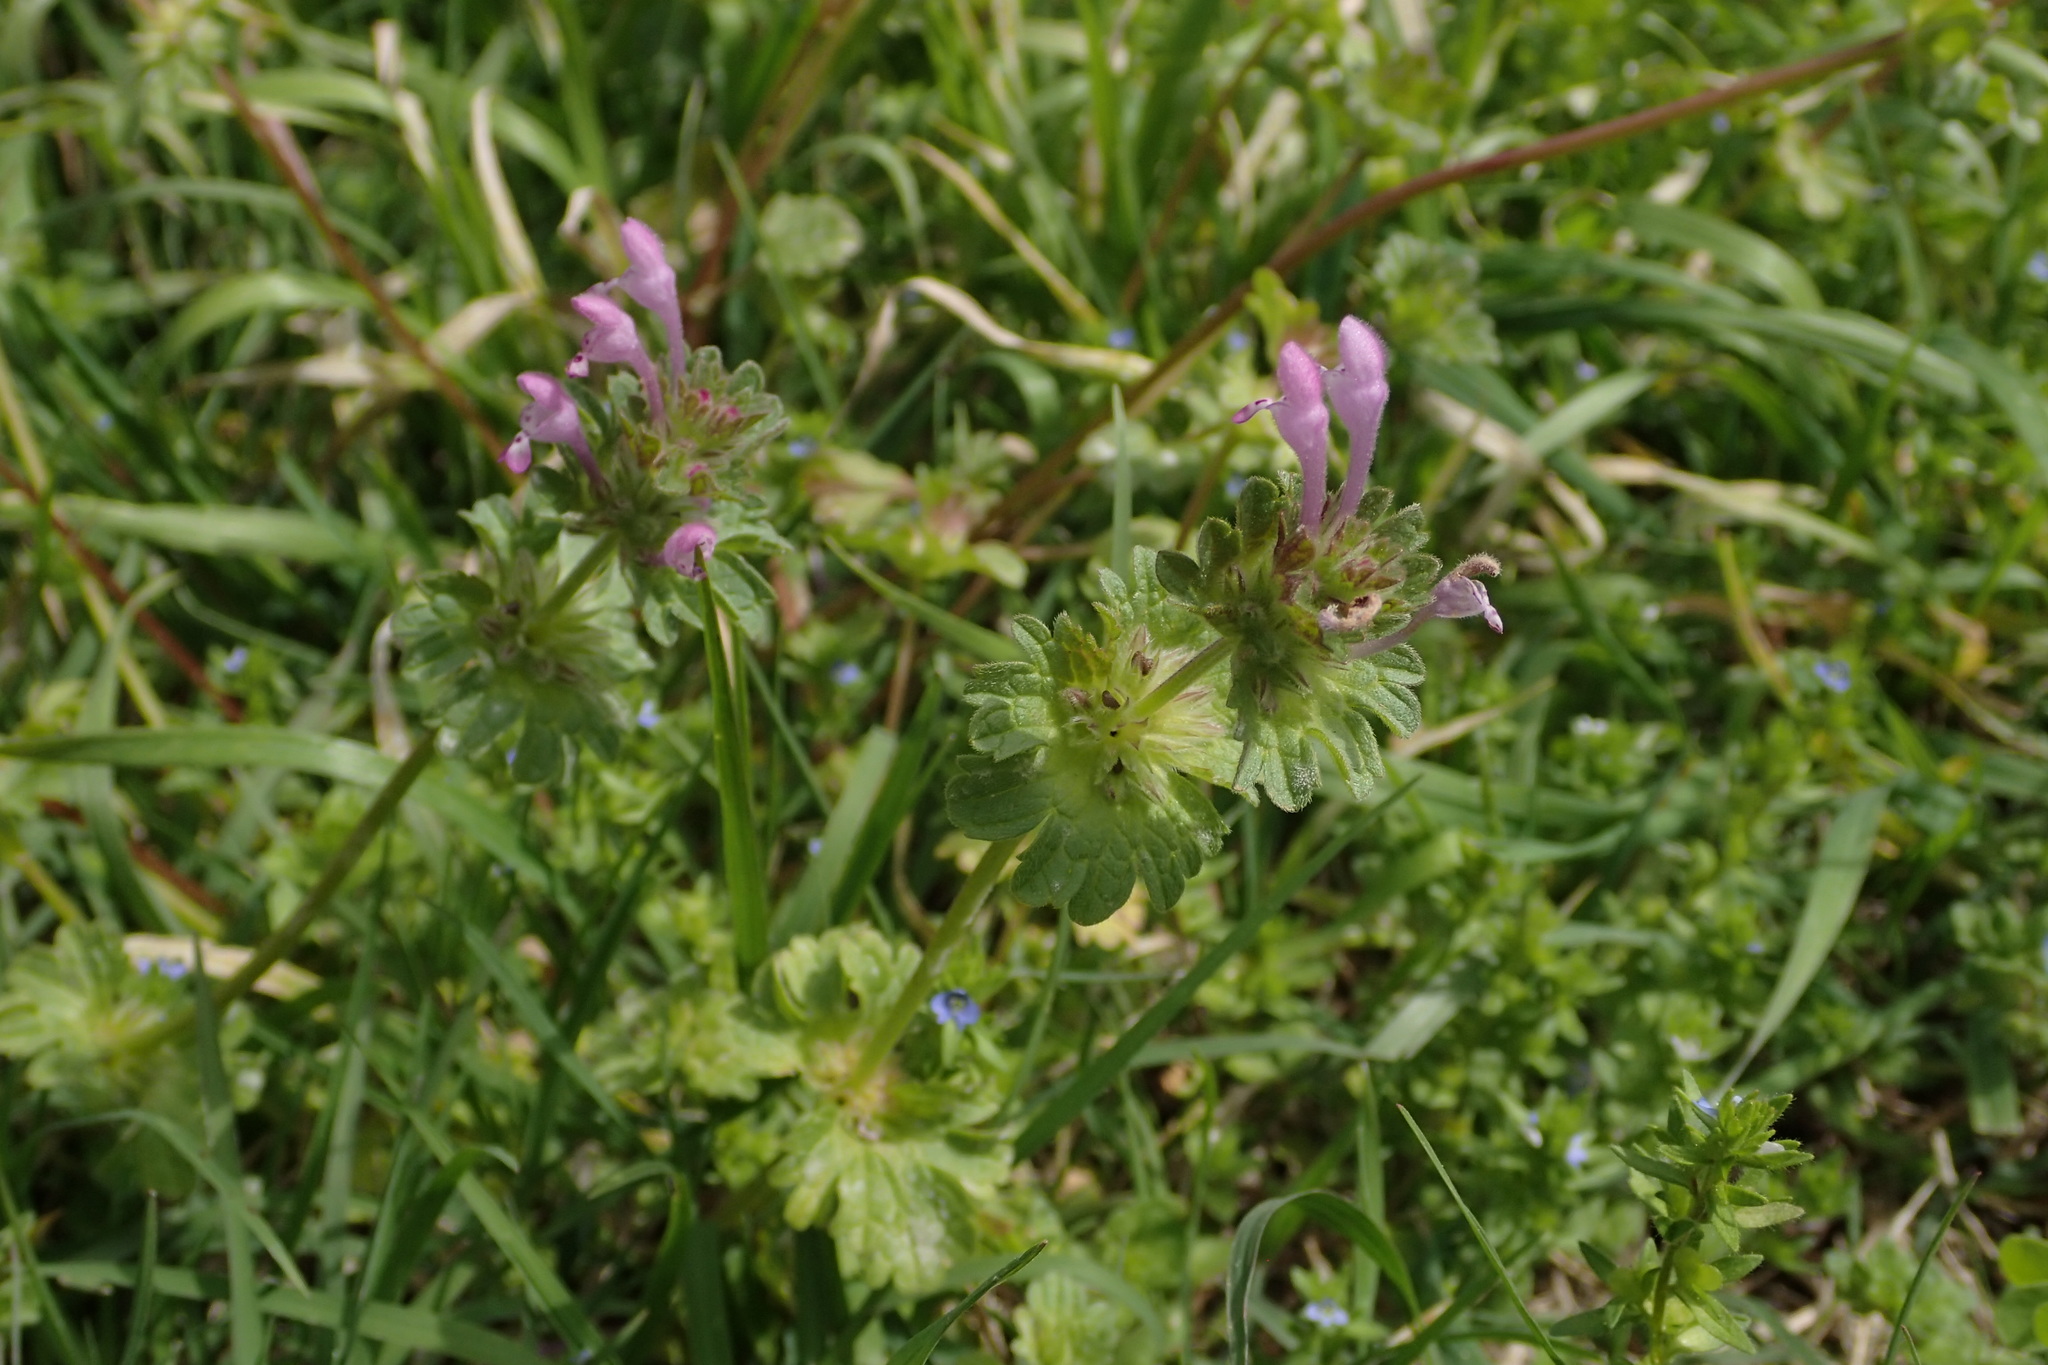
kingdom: Plantae
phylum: Tracheophyta
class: Magnoliopsida
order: Lamiales
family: Lamiaceae
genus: Lamium
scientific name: Lamium amplexicaule
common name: Henbit dead-nettle
